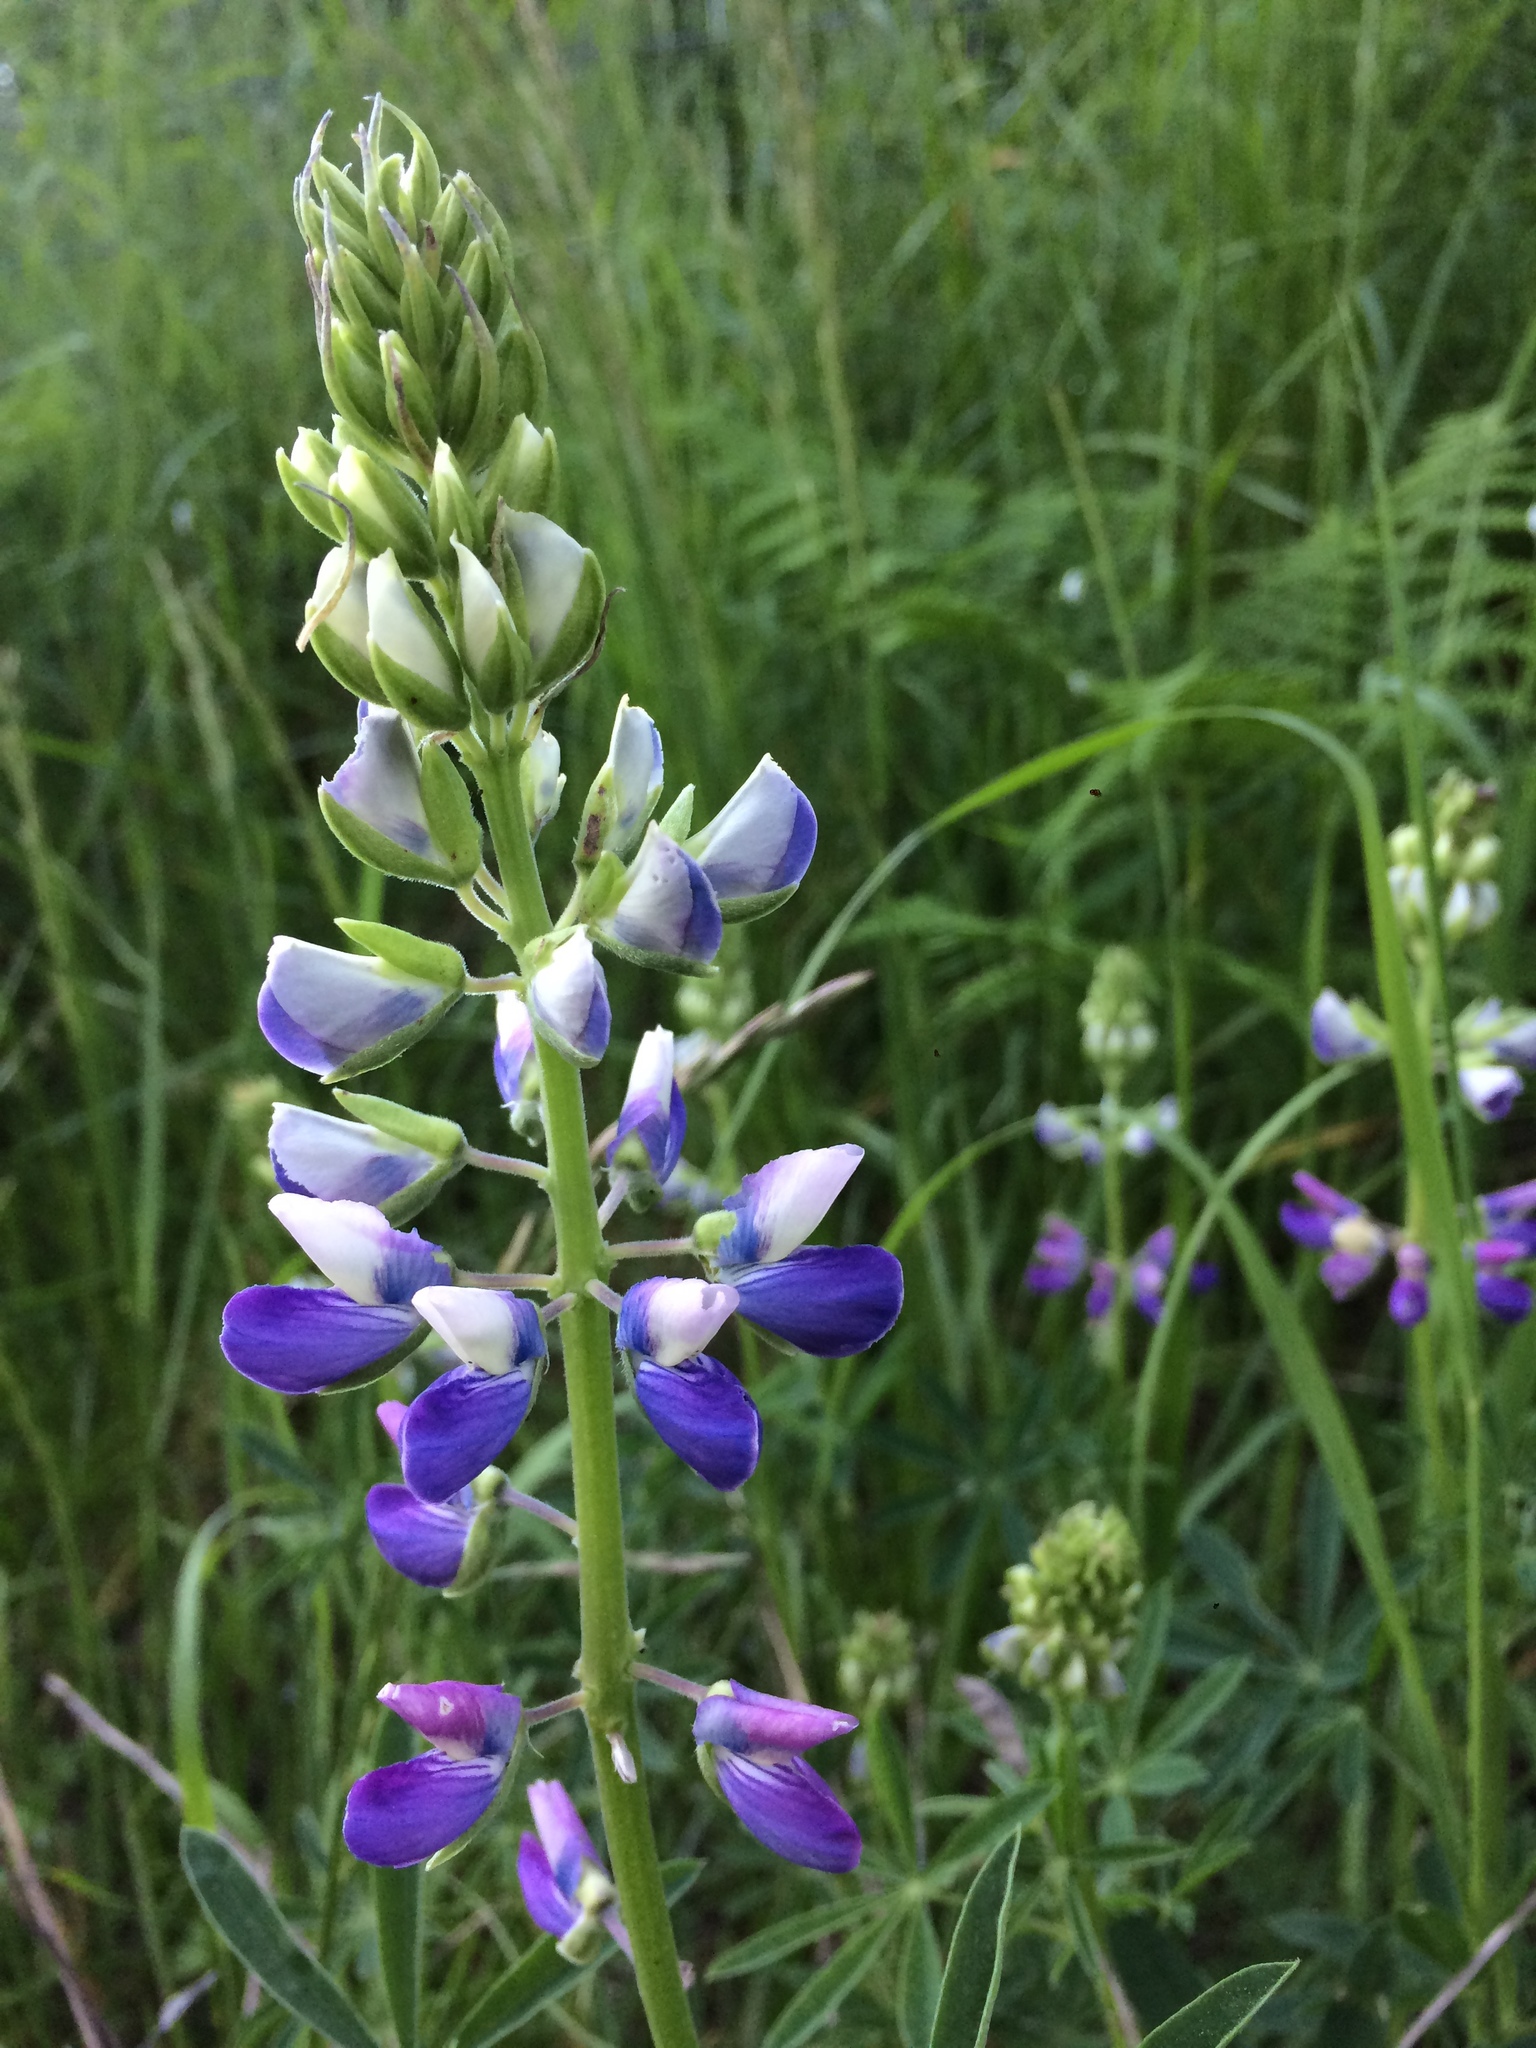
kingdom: Plantae
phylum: Tracheophyta
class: Magnoliopsida
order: Fabales
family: Fabaceae
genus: Lupinus
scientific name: Lupinus rivularis
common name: Riverbank lupine
